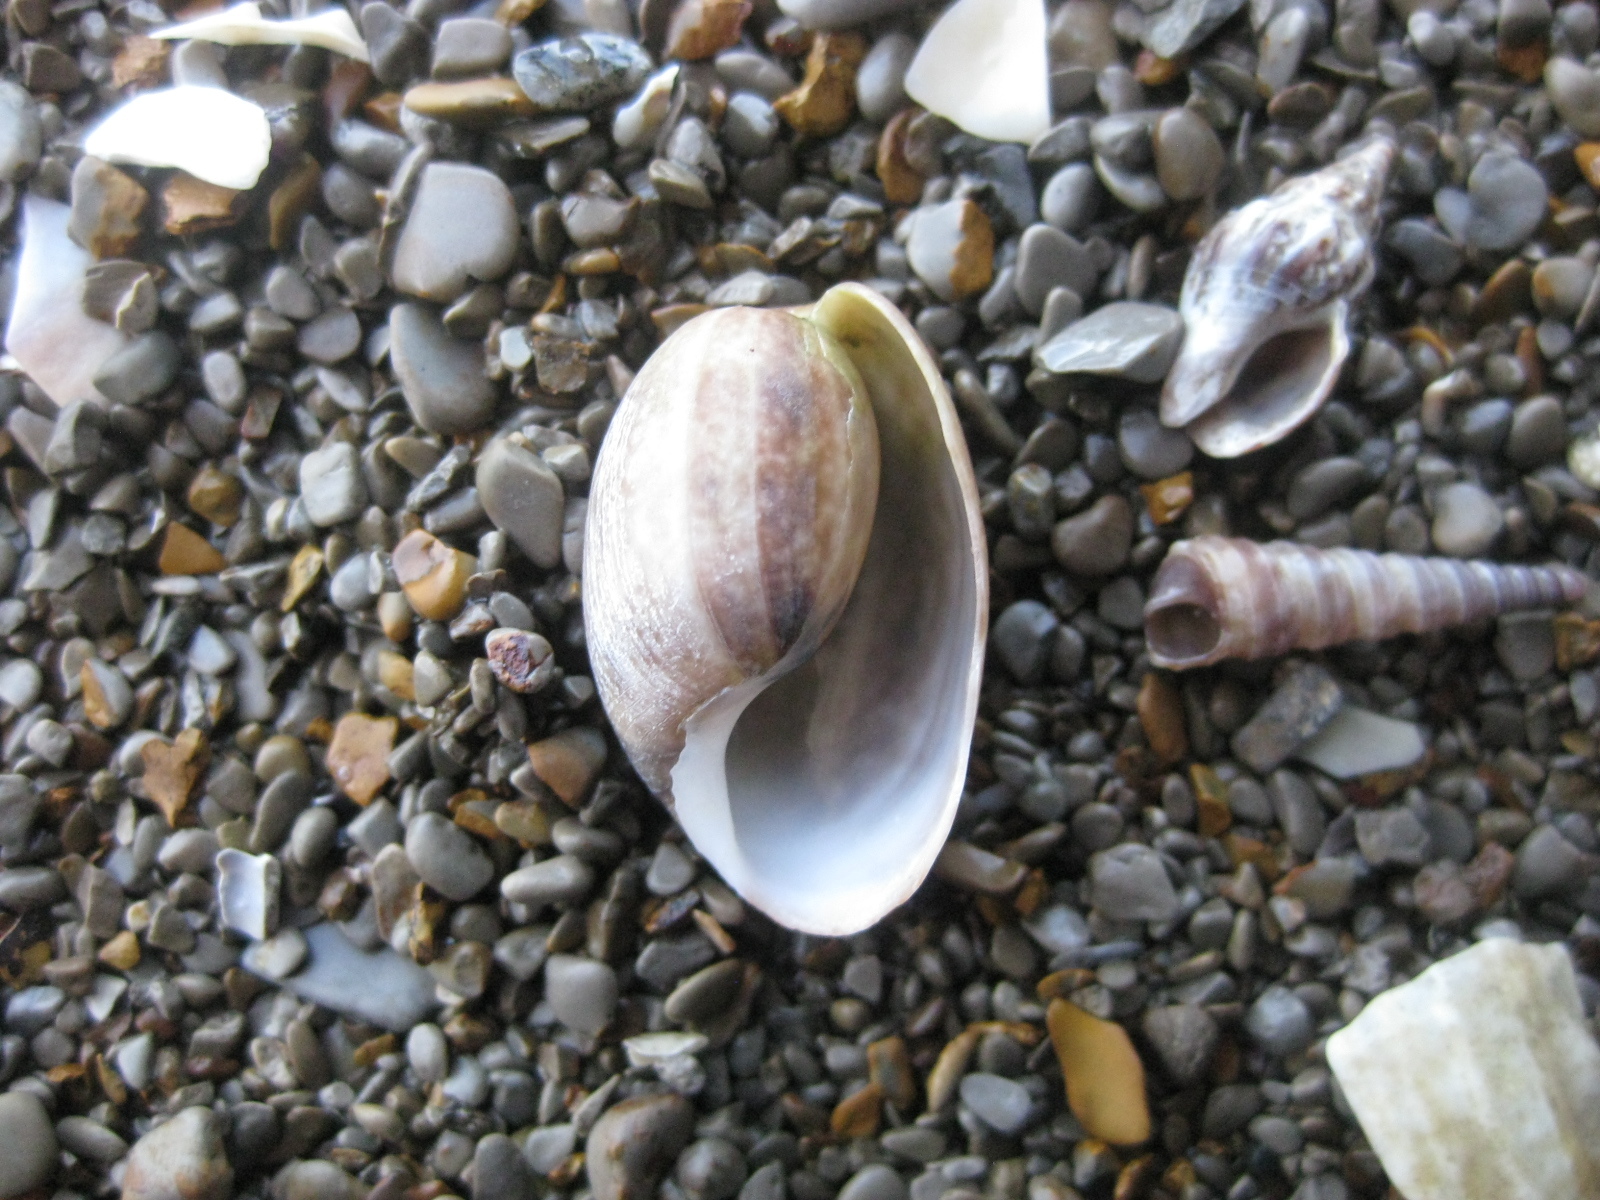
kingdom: Animalia
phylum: Mollusca
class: Gastropoda
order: Cephalaspidea
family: Bullidae
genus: Bulla
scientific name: Bulla quoyii
